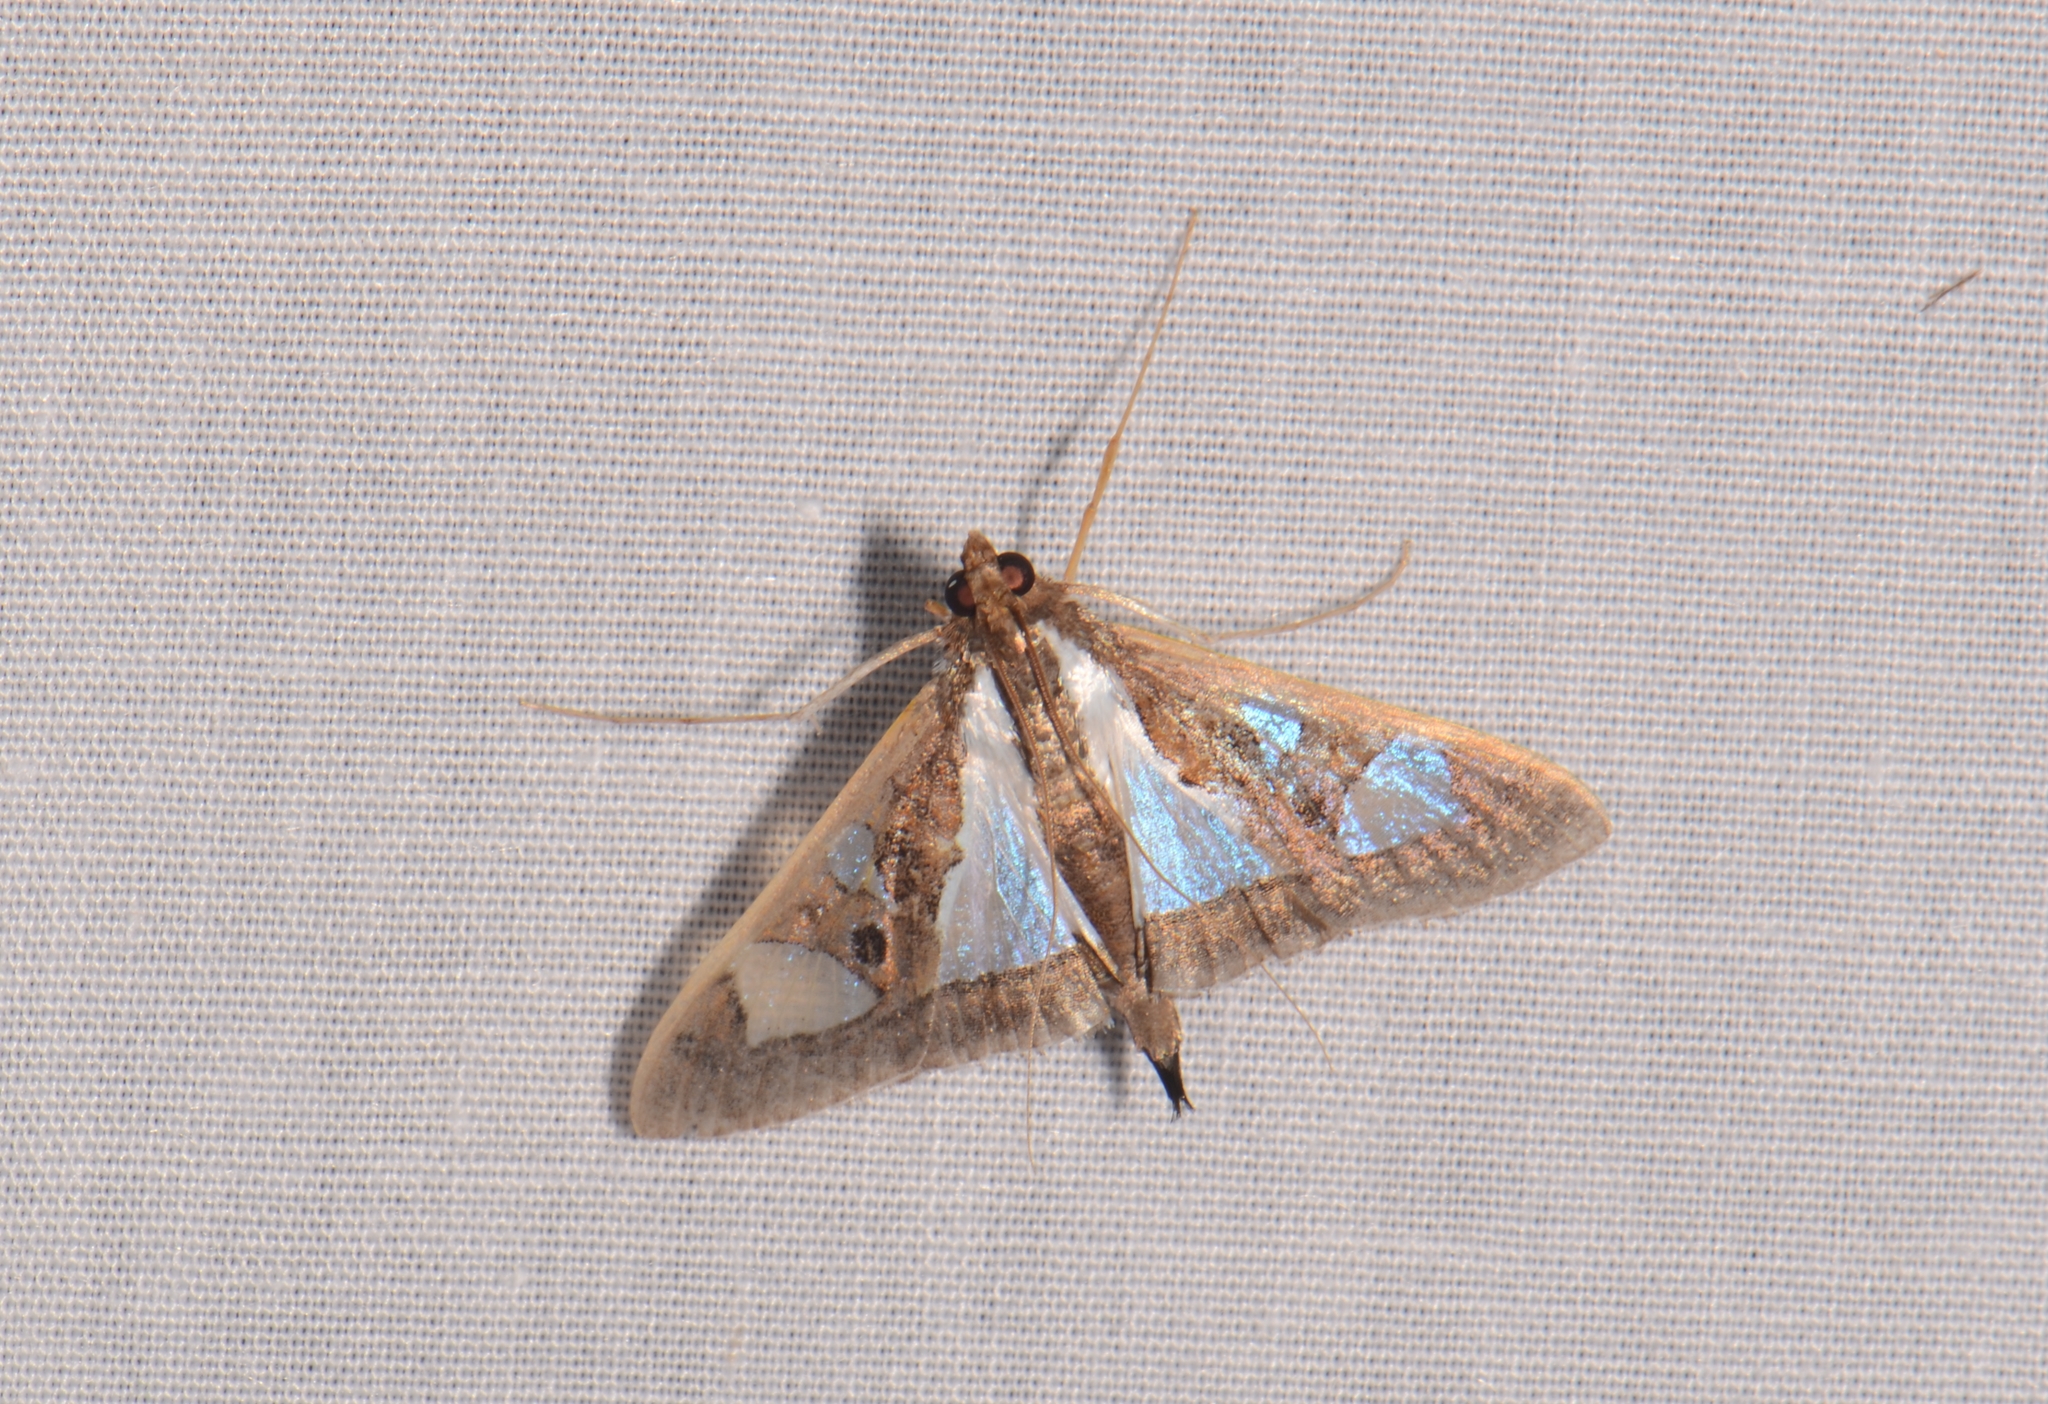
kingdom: Animalia
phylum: Arthropoda
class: Insecta
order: Lepidoptera
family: Crambidae
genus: Glyphodes
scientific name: Glyphodes bivitralis
